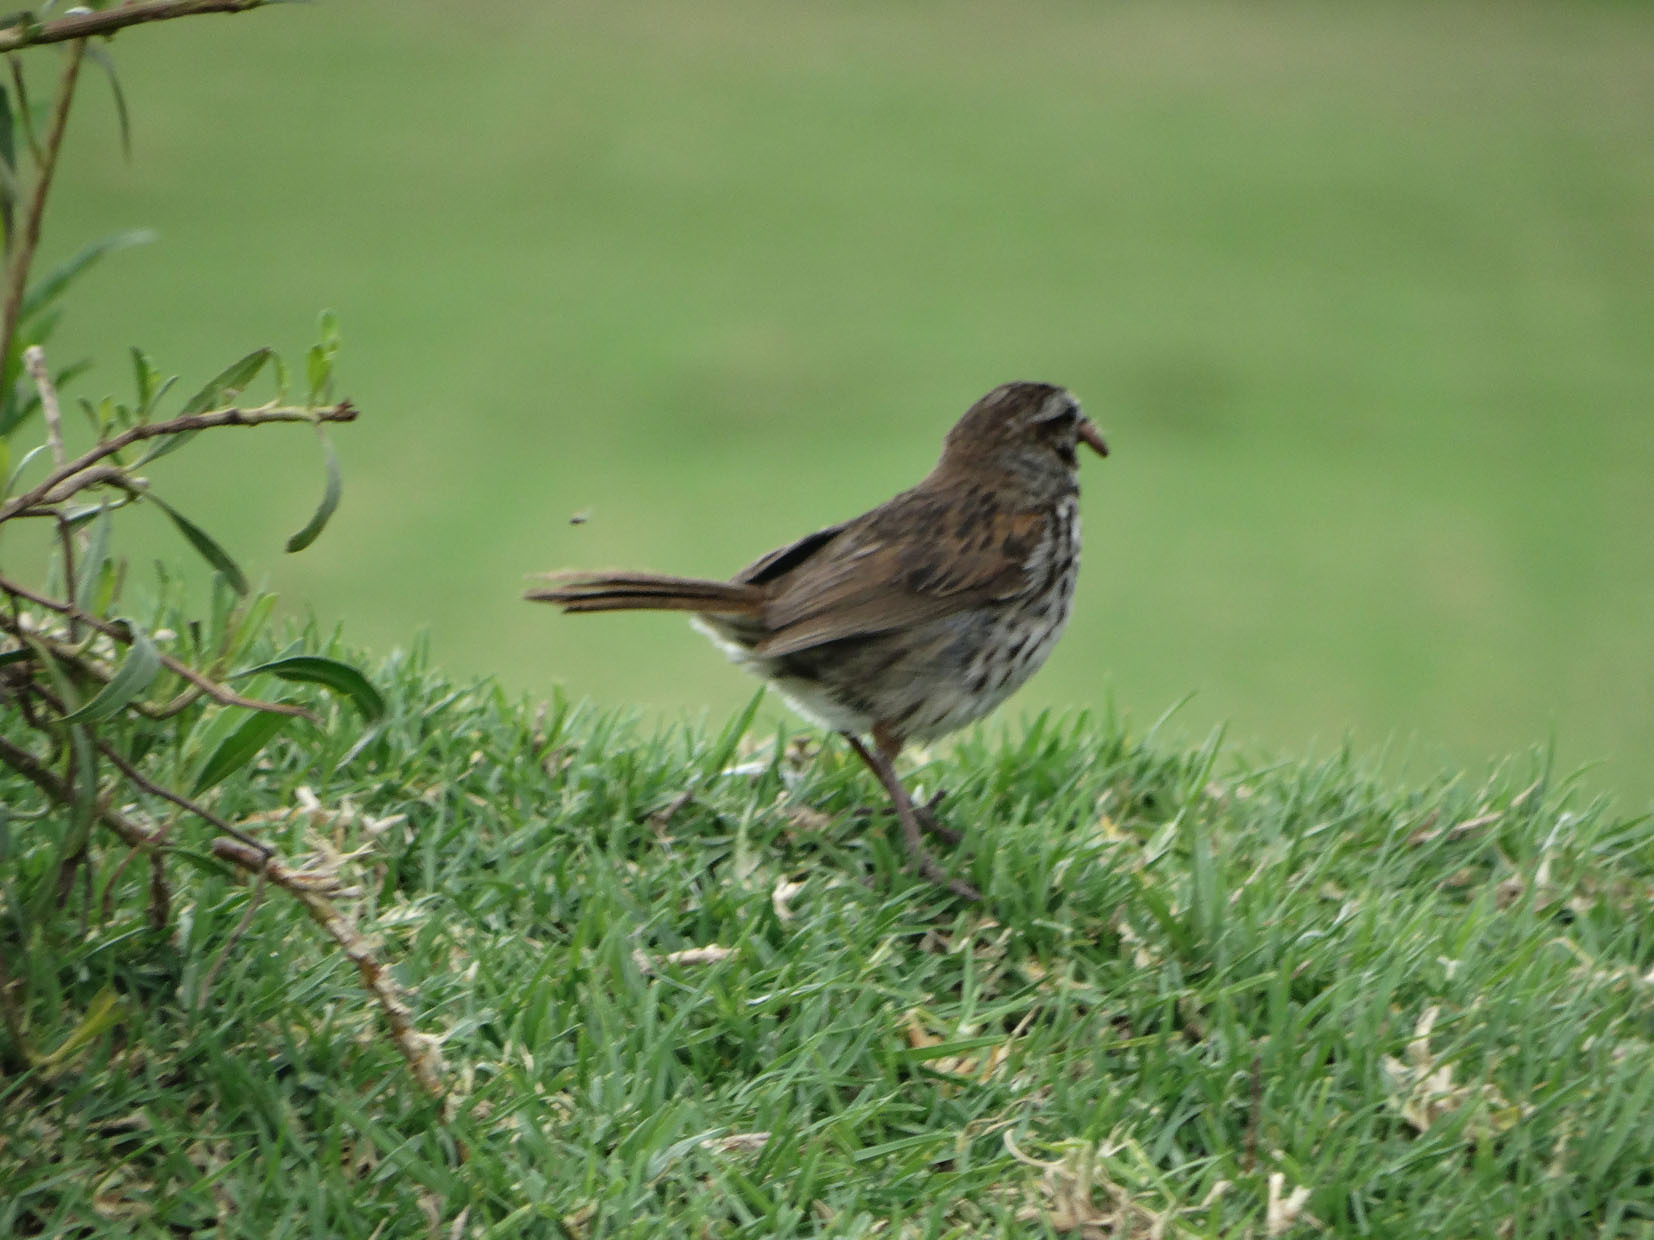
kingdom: Animalia
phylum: Chordata
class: Aves
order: Passeriformes
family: Passerellidae
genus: Melospiza
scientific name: Melospiza melodia
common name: Song sparrow
